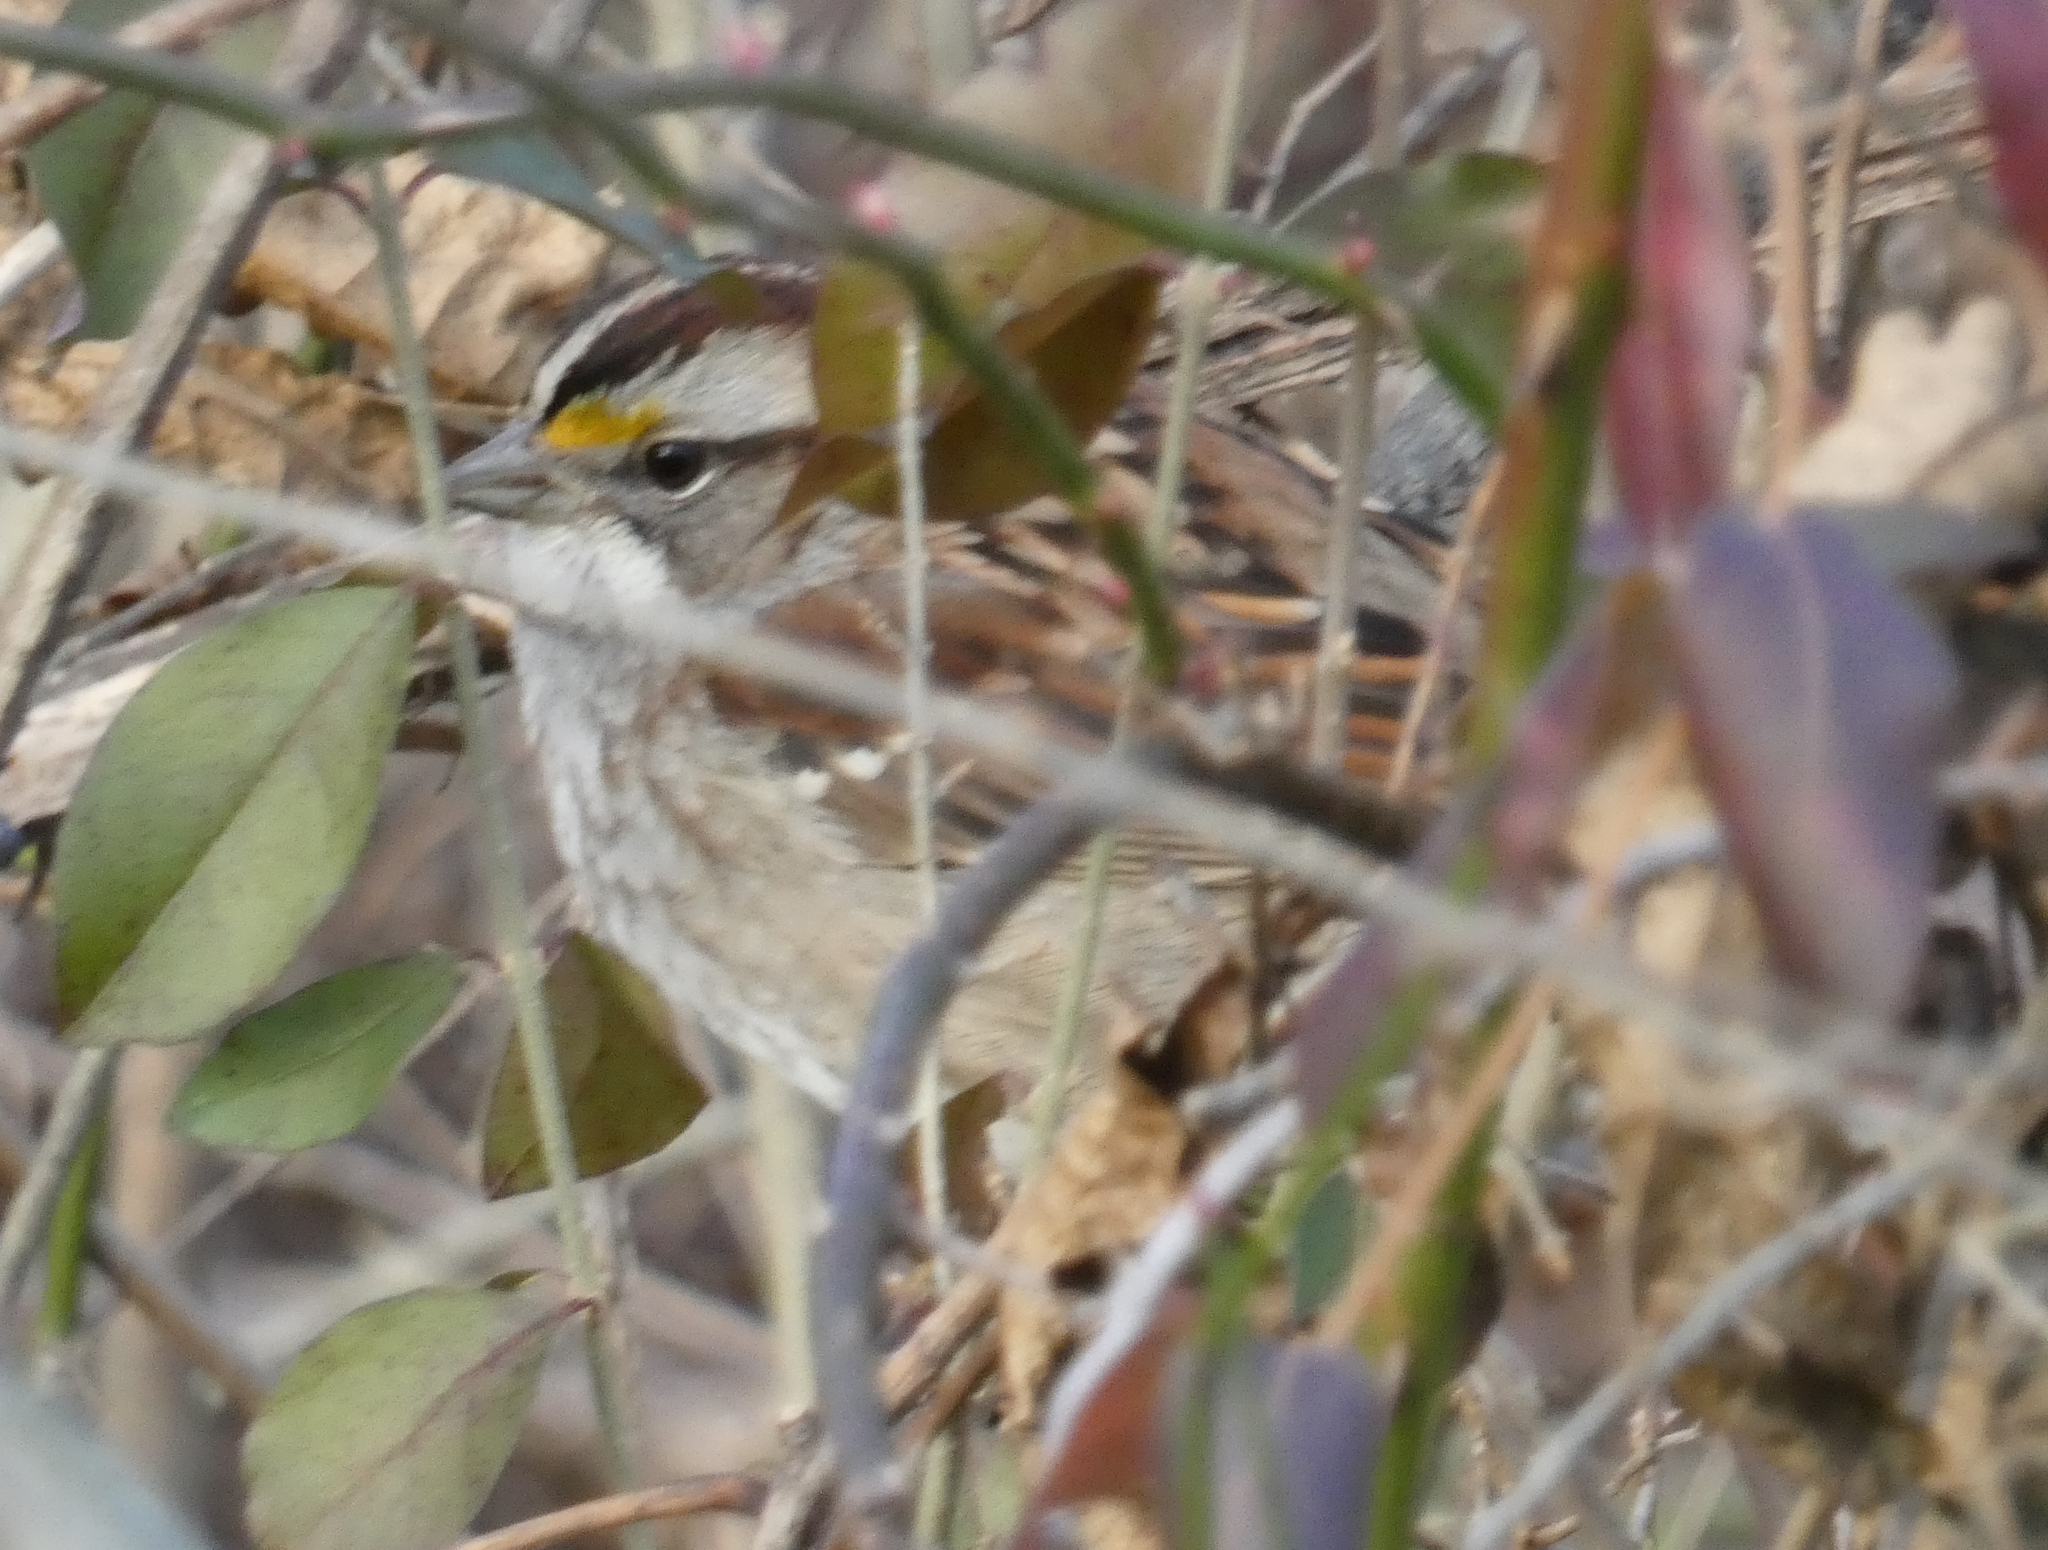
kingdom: Animalia
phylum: Chordata
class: Aves
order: Passeriformes
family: Passerellidae
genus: Zonotrichia
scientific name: Zonotrichia albicollis
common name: White-throated sparrow
